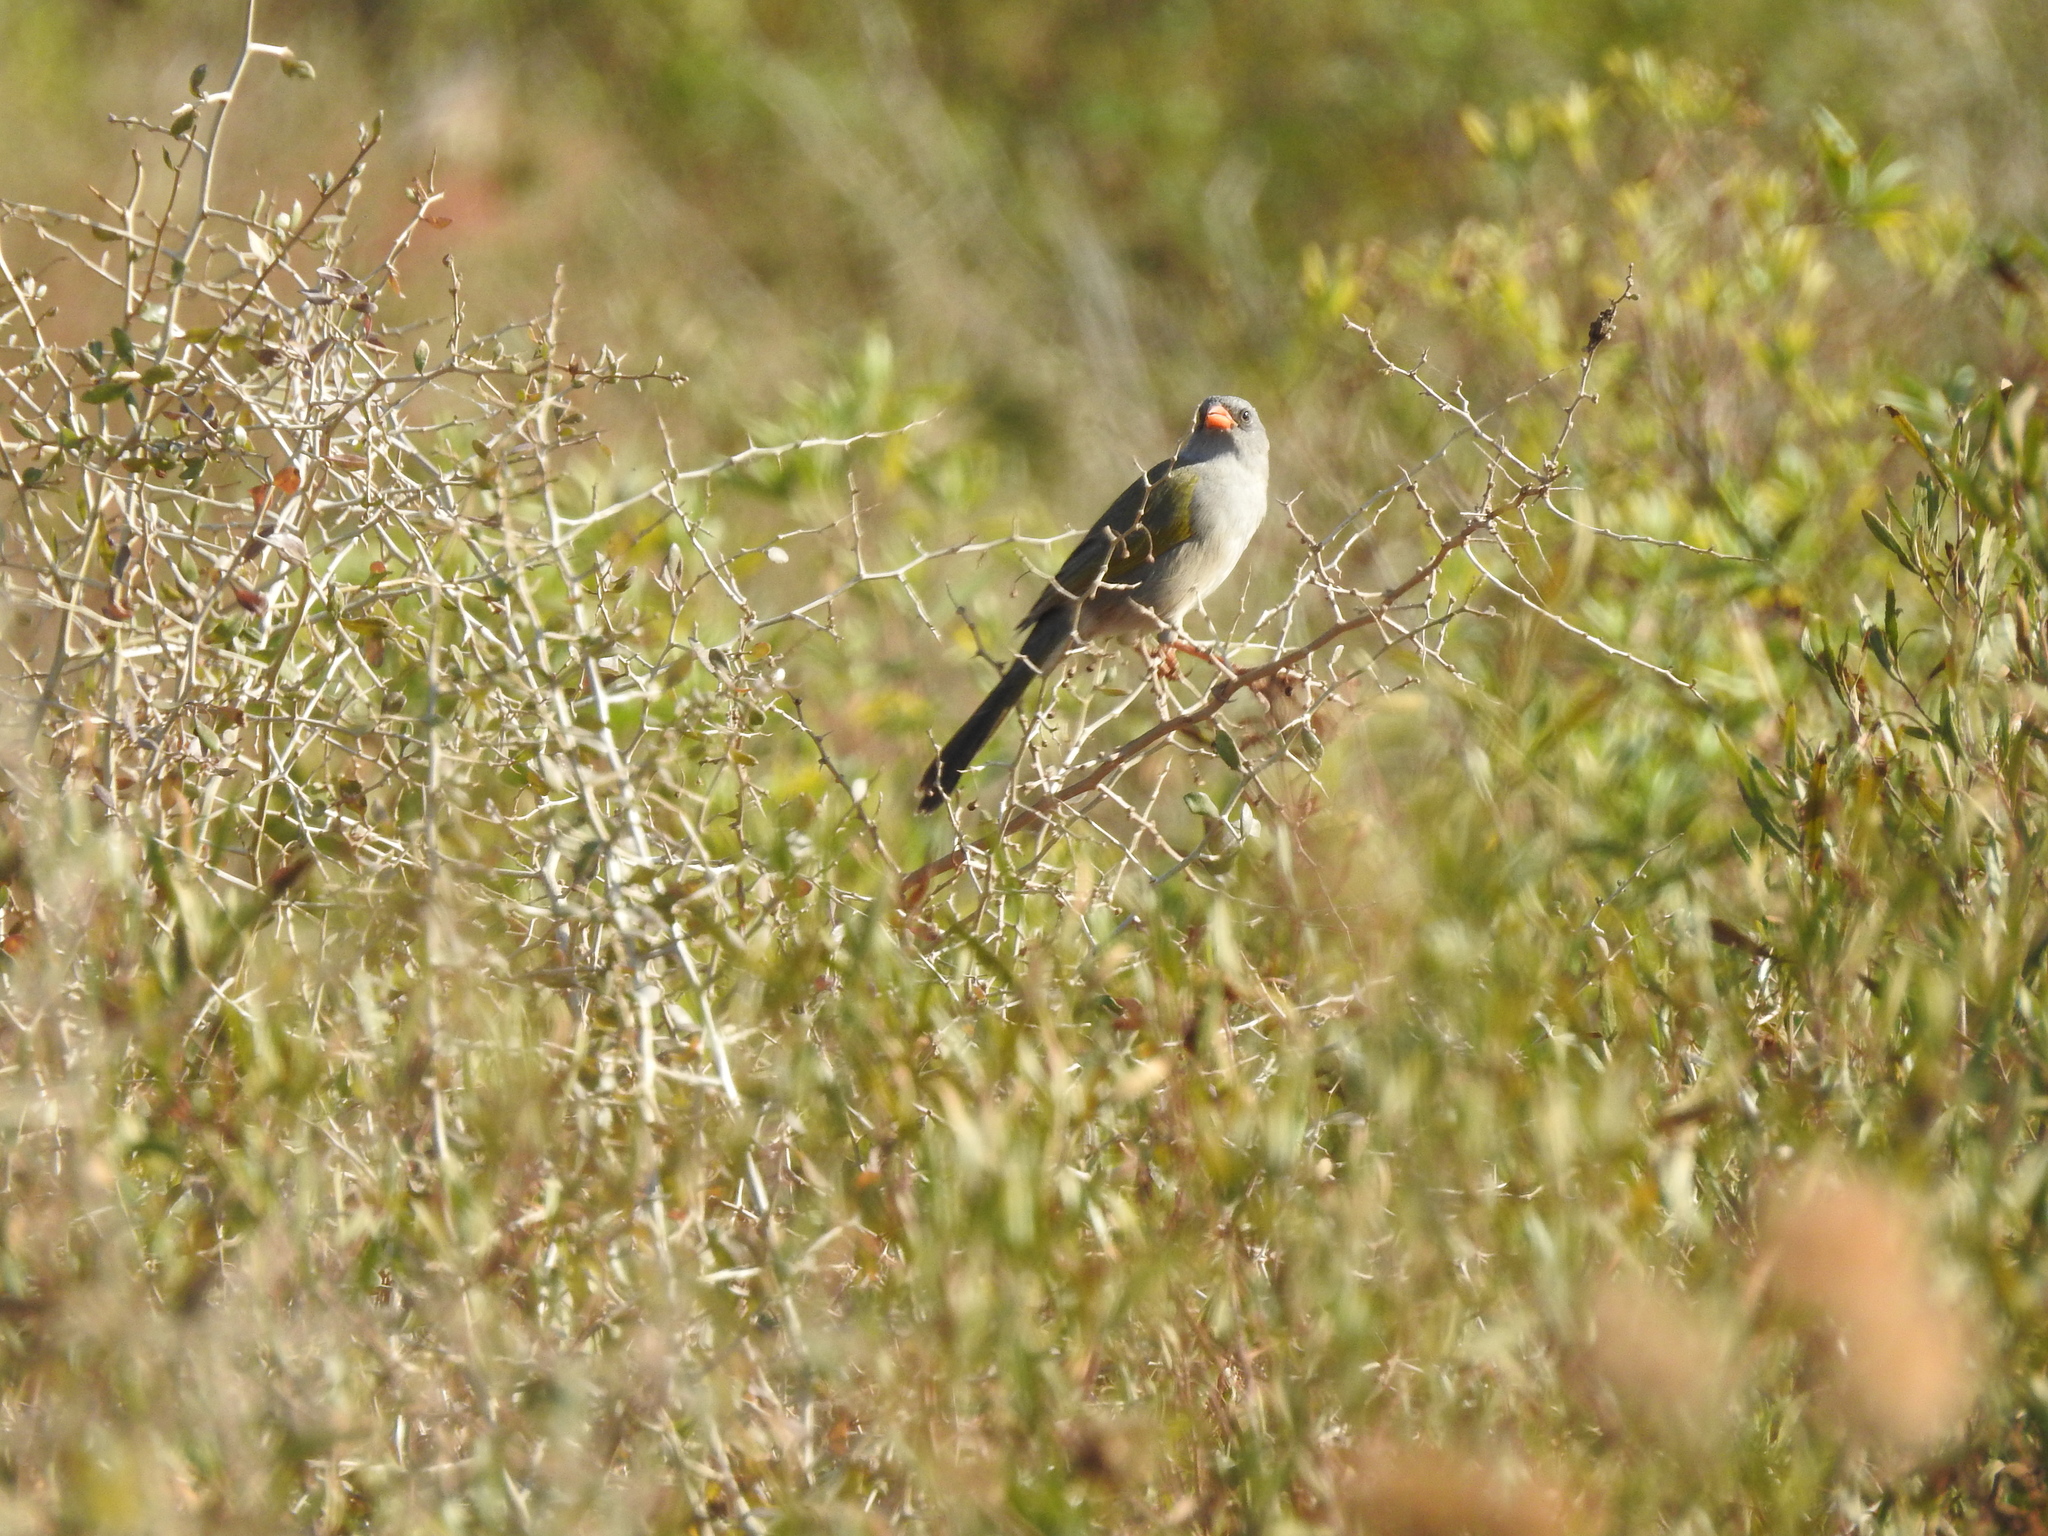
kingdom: Animalia
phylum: Chordata
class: Aves
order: Passeriformes
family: Thraupidae
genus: Embernagra
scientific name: Embernagra platensis
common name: Pampa finch
